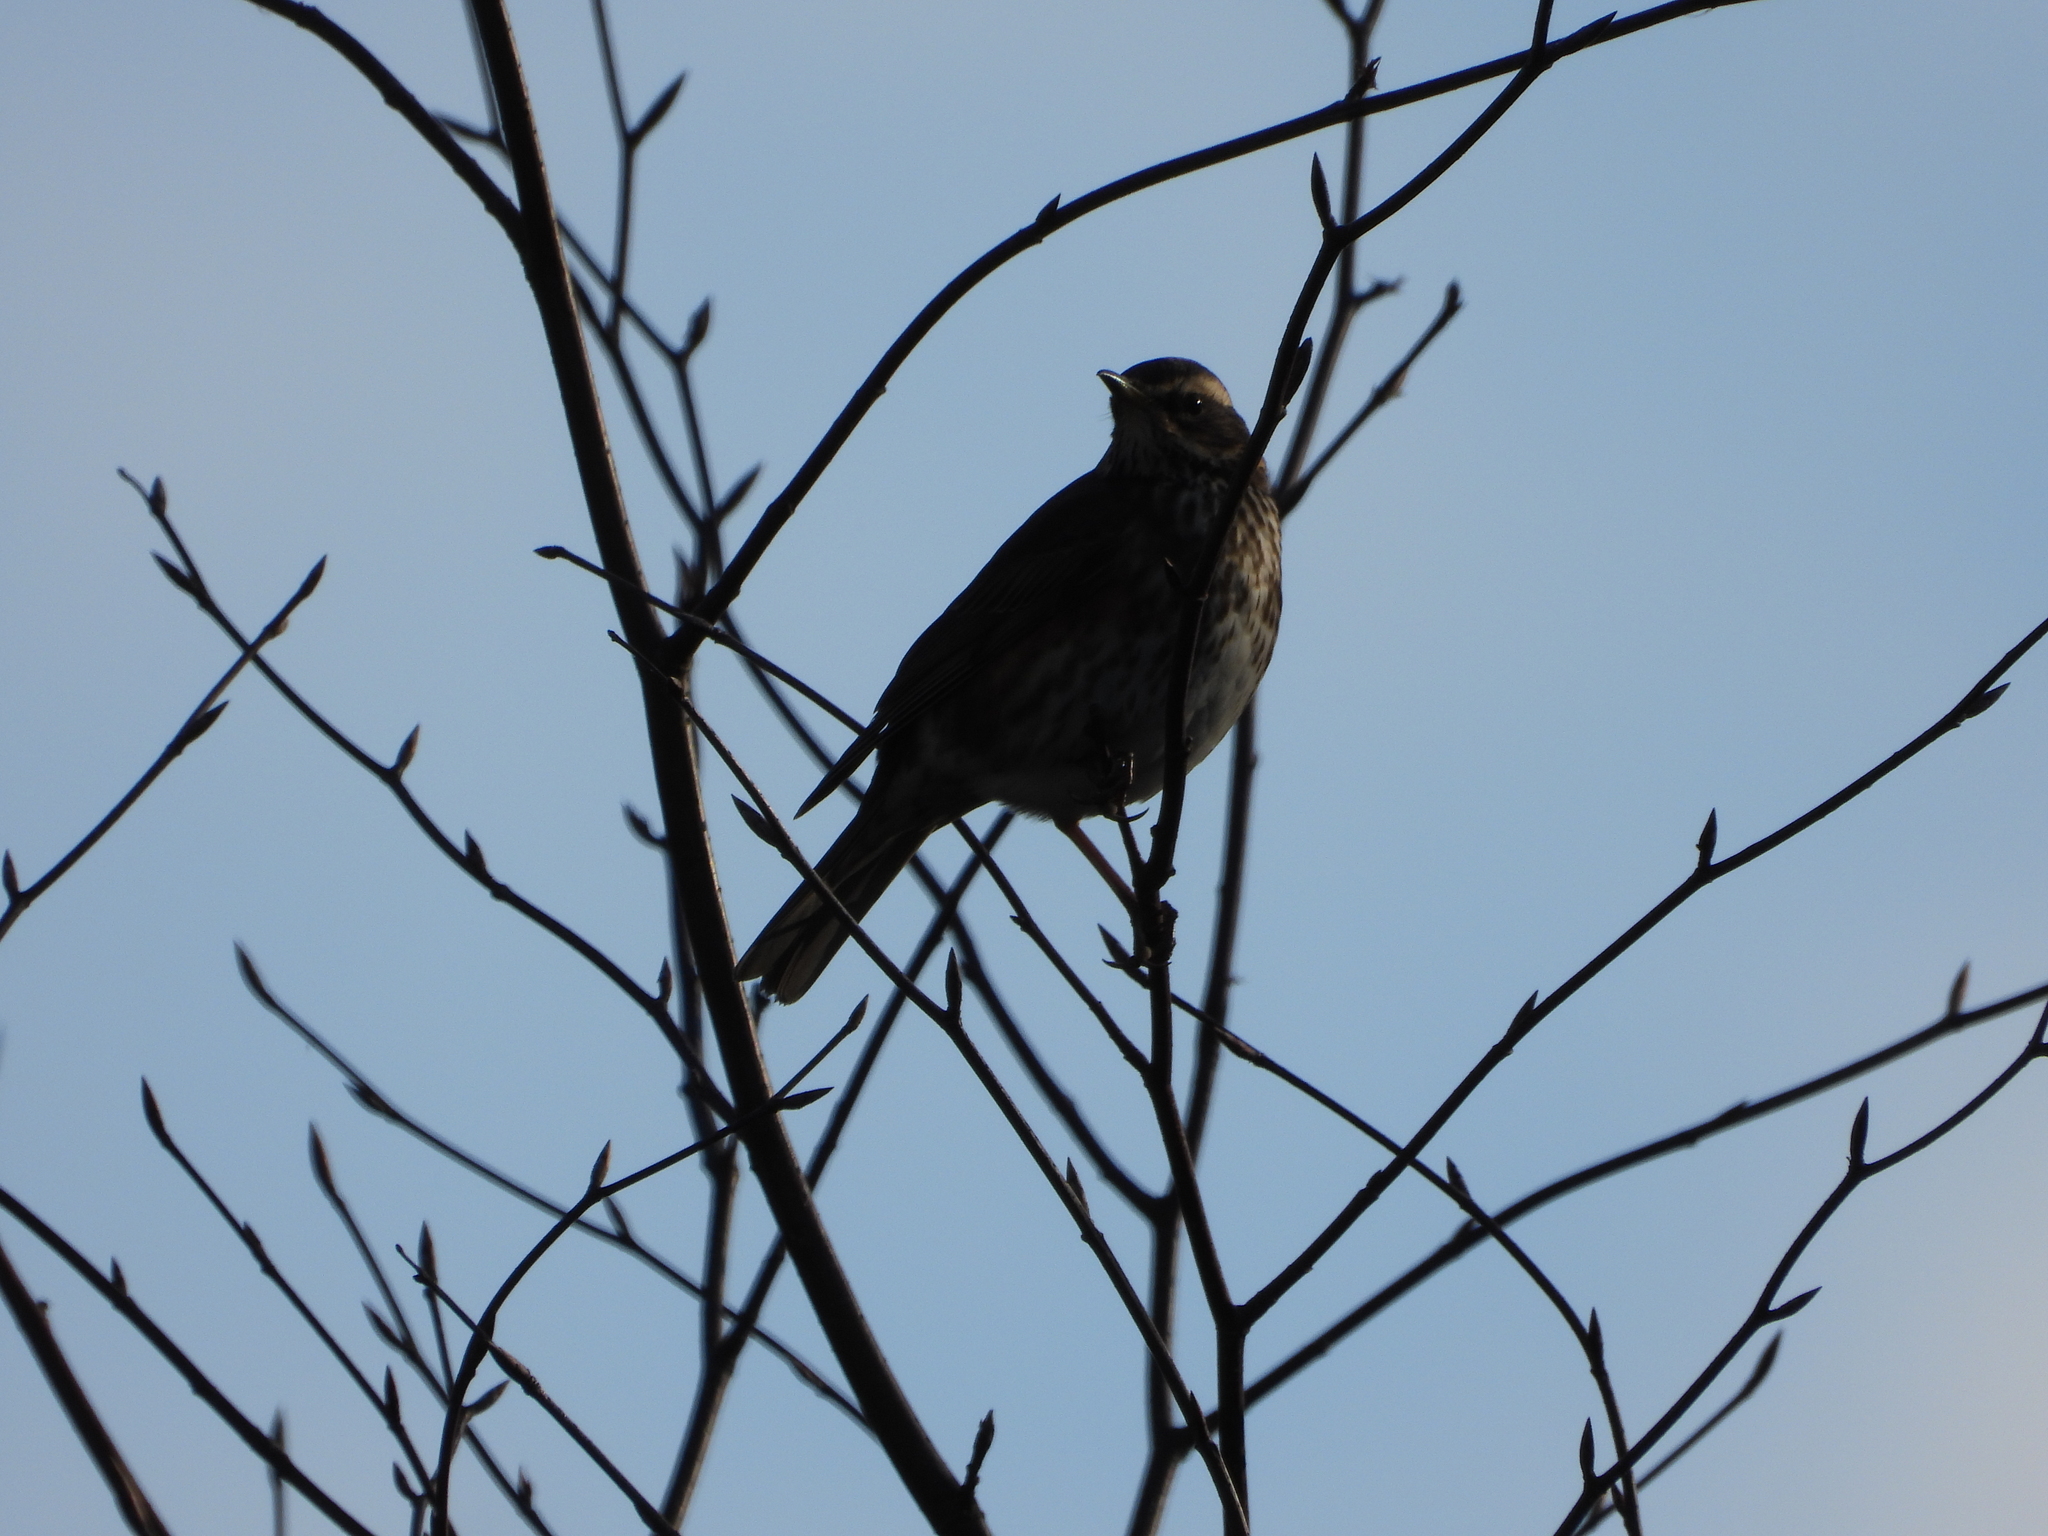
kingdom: Animalia
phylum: Chordata
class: Aves
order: Passeriformes
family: Turdidae
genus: Turdus
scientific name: Turdus iliacus
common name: Redwing
